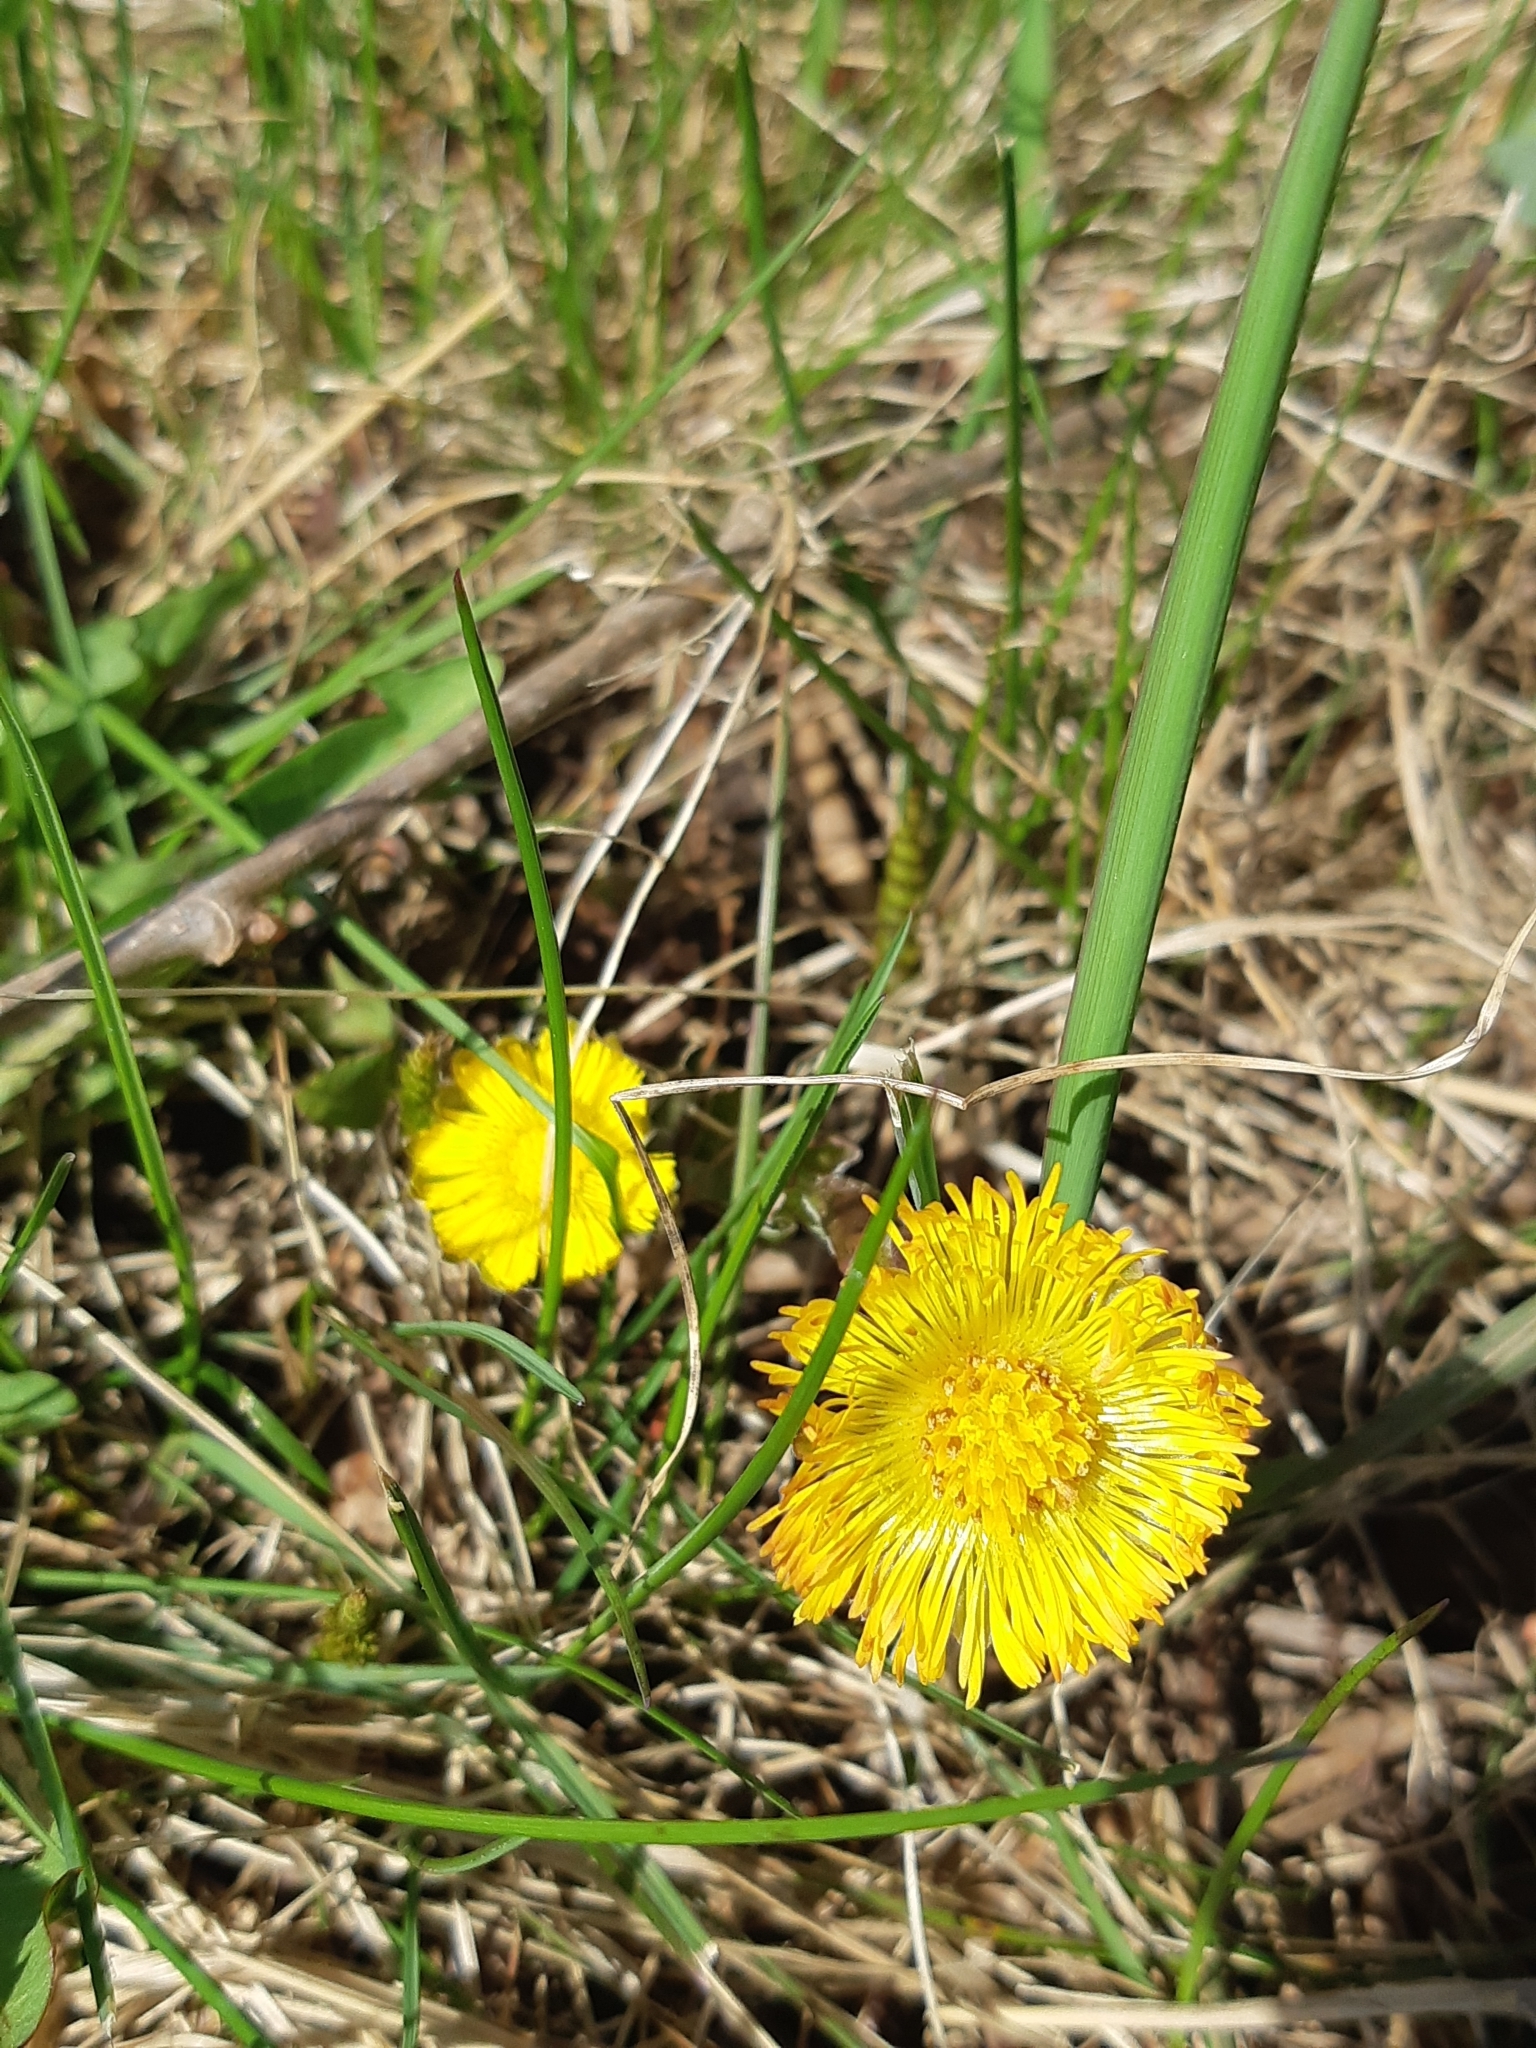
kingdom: Plantae
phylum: Tracheophyta
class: Magnoliopsida
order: Asterales
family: Asteraceae
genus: Tussilago
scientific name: Tussilago farfara
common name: Coltsfoot
